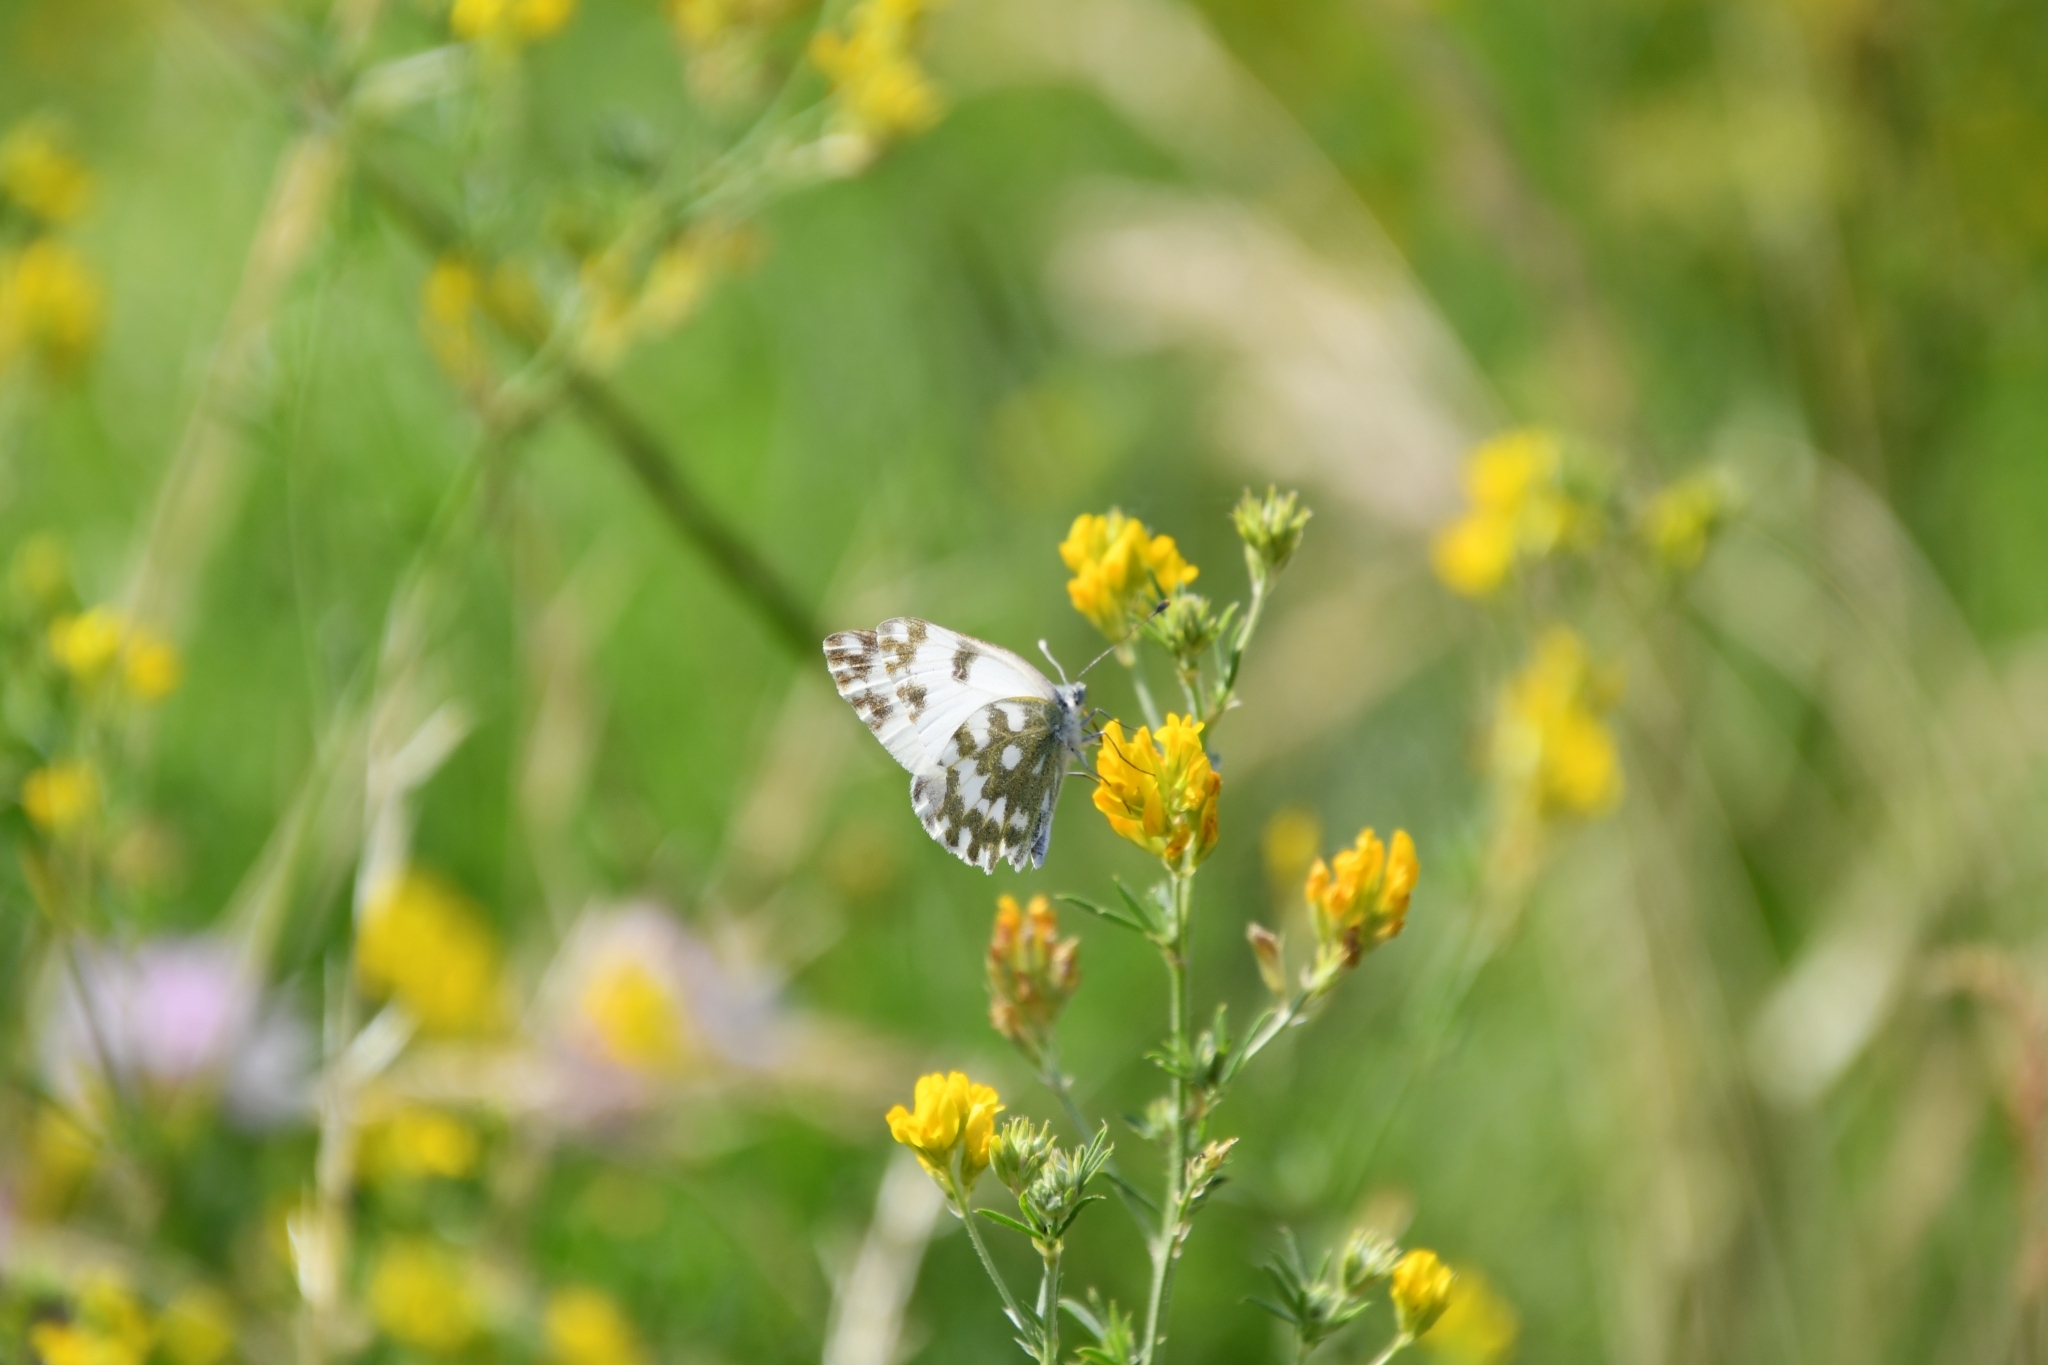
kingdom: Animalia
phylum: Arthropoda
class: Insecta
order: Lepidoptera
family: Pieridae
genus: Pontia
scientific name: Pontia edusa
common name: Eastern bath white
